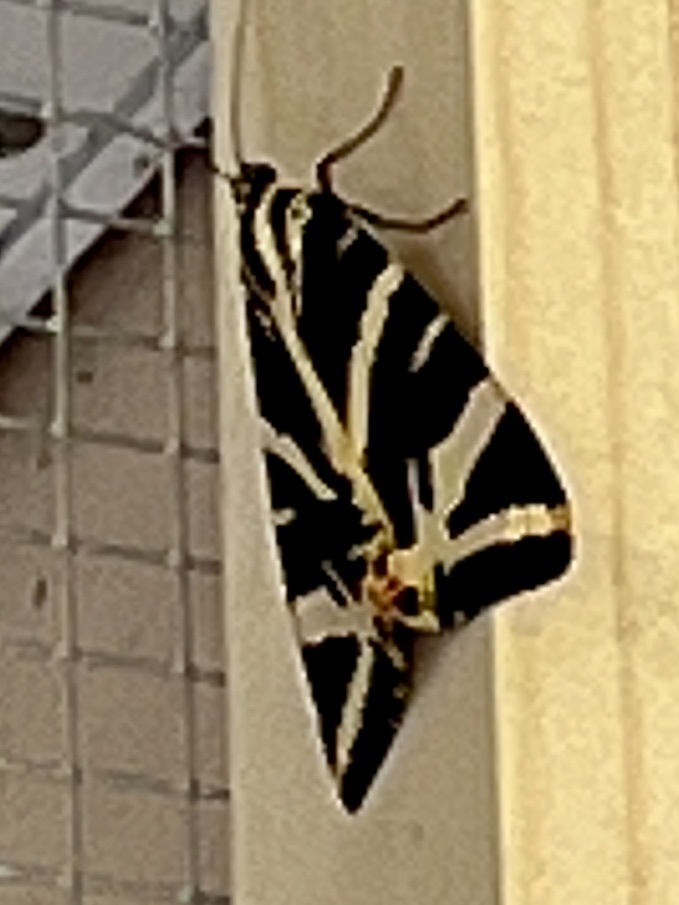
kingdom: Animalia
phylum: Arthropoda
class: Insecta
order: Lepidoptera
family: Erebidae
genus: Euplagia
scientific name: Euplagia quadripunctaria
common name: Jersey tiger
